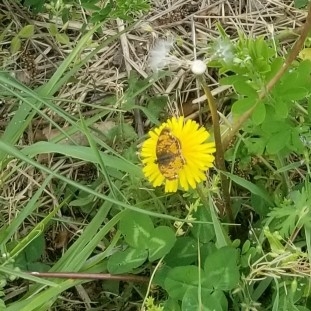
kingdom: Animalia
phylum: Arthropoda
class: Insecta
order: Lepidoptera
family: Nymphalidae
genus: Phyciodes
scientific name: Phyciodes tharos
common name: Pearl crescent
